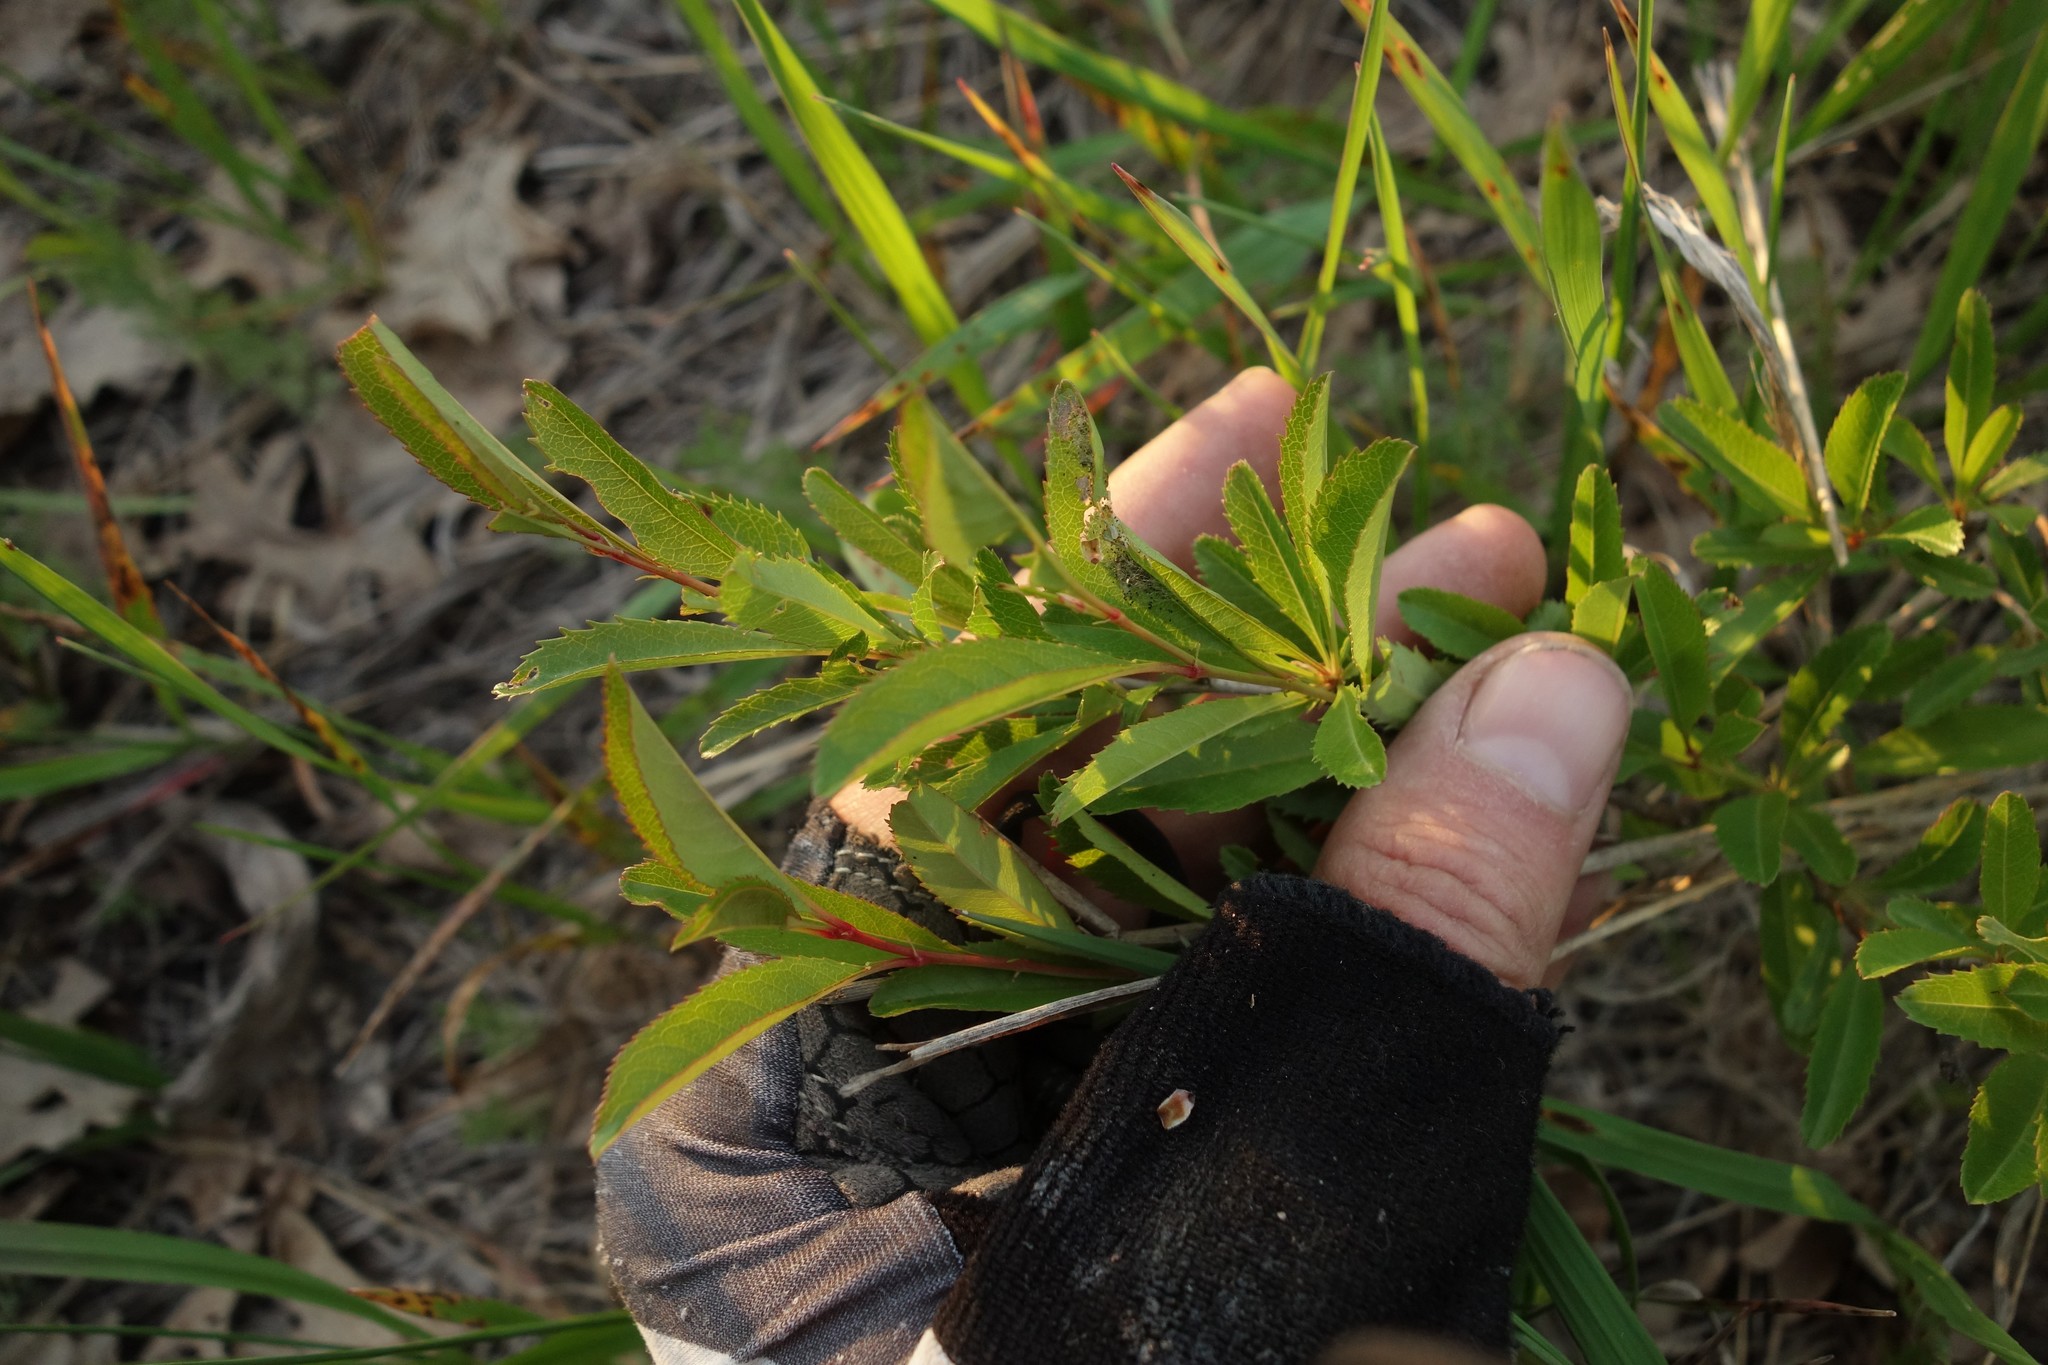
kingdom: Plantae
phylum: Tracheophyta
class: Magnoliopsida
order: Rosales
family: Rosaceae
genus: Prunus
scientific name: Prunus tenella
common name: Dwarf russian almond
